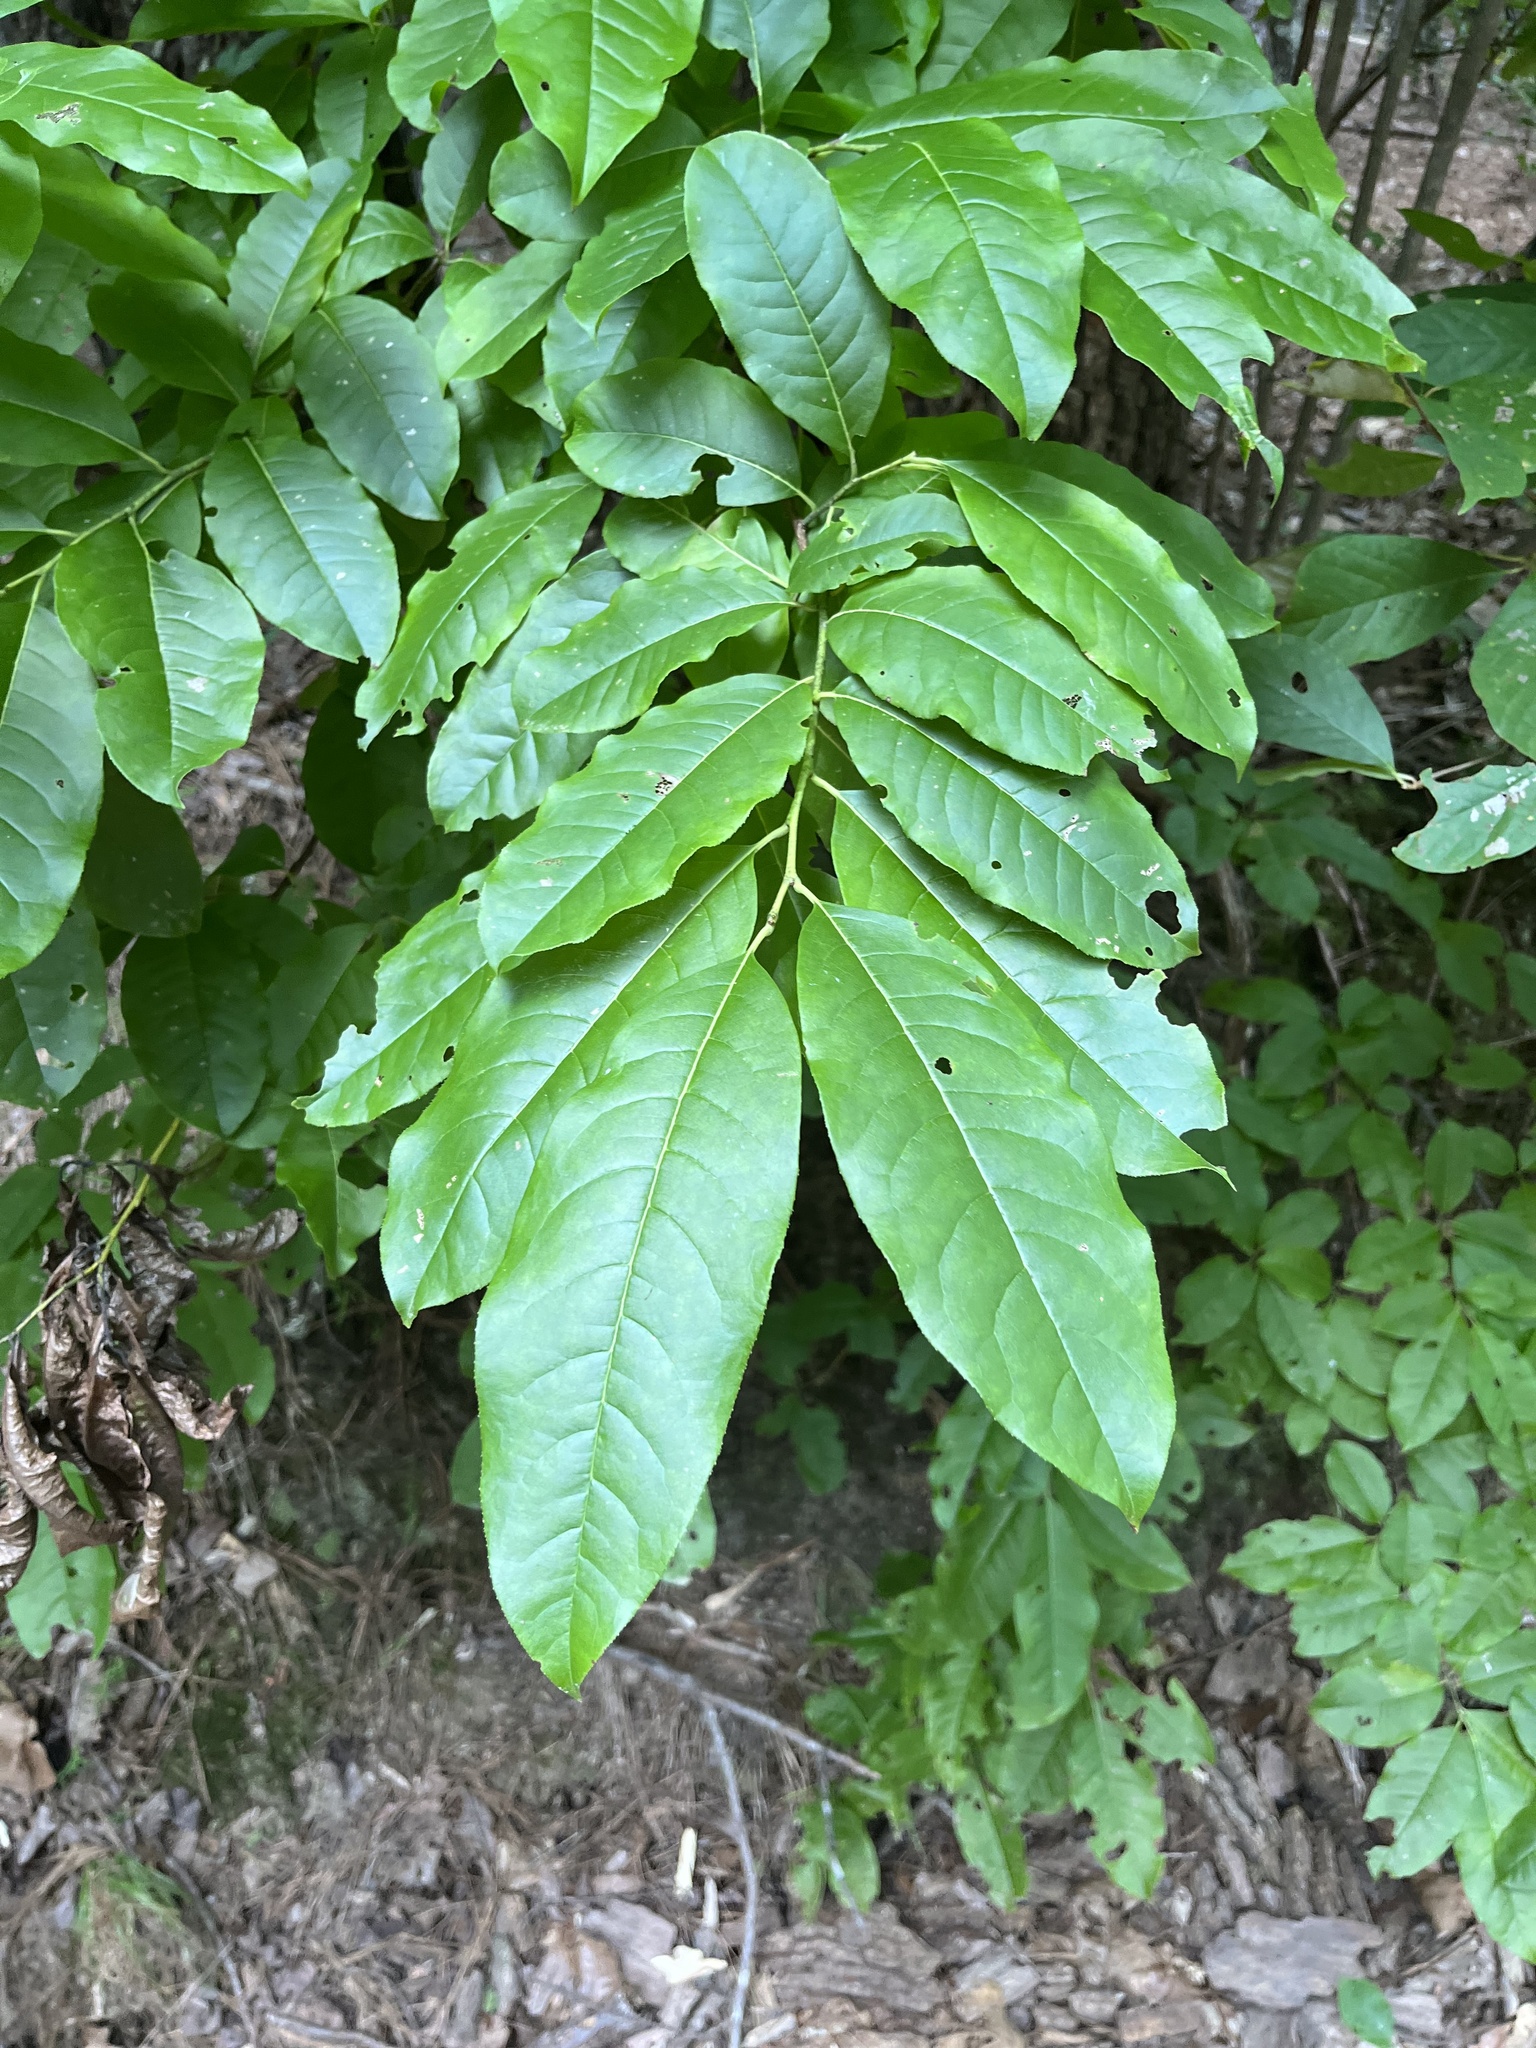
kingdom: Plantae
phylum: Tracheophyta
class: Magnoliopsida
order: Ericales
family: Ericaceae
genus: Oxydendrum
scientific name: Oxydendrum arboreum
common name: Sourwood
